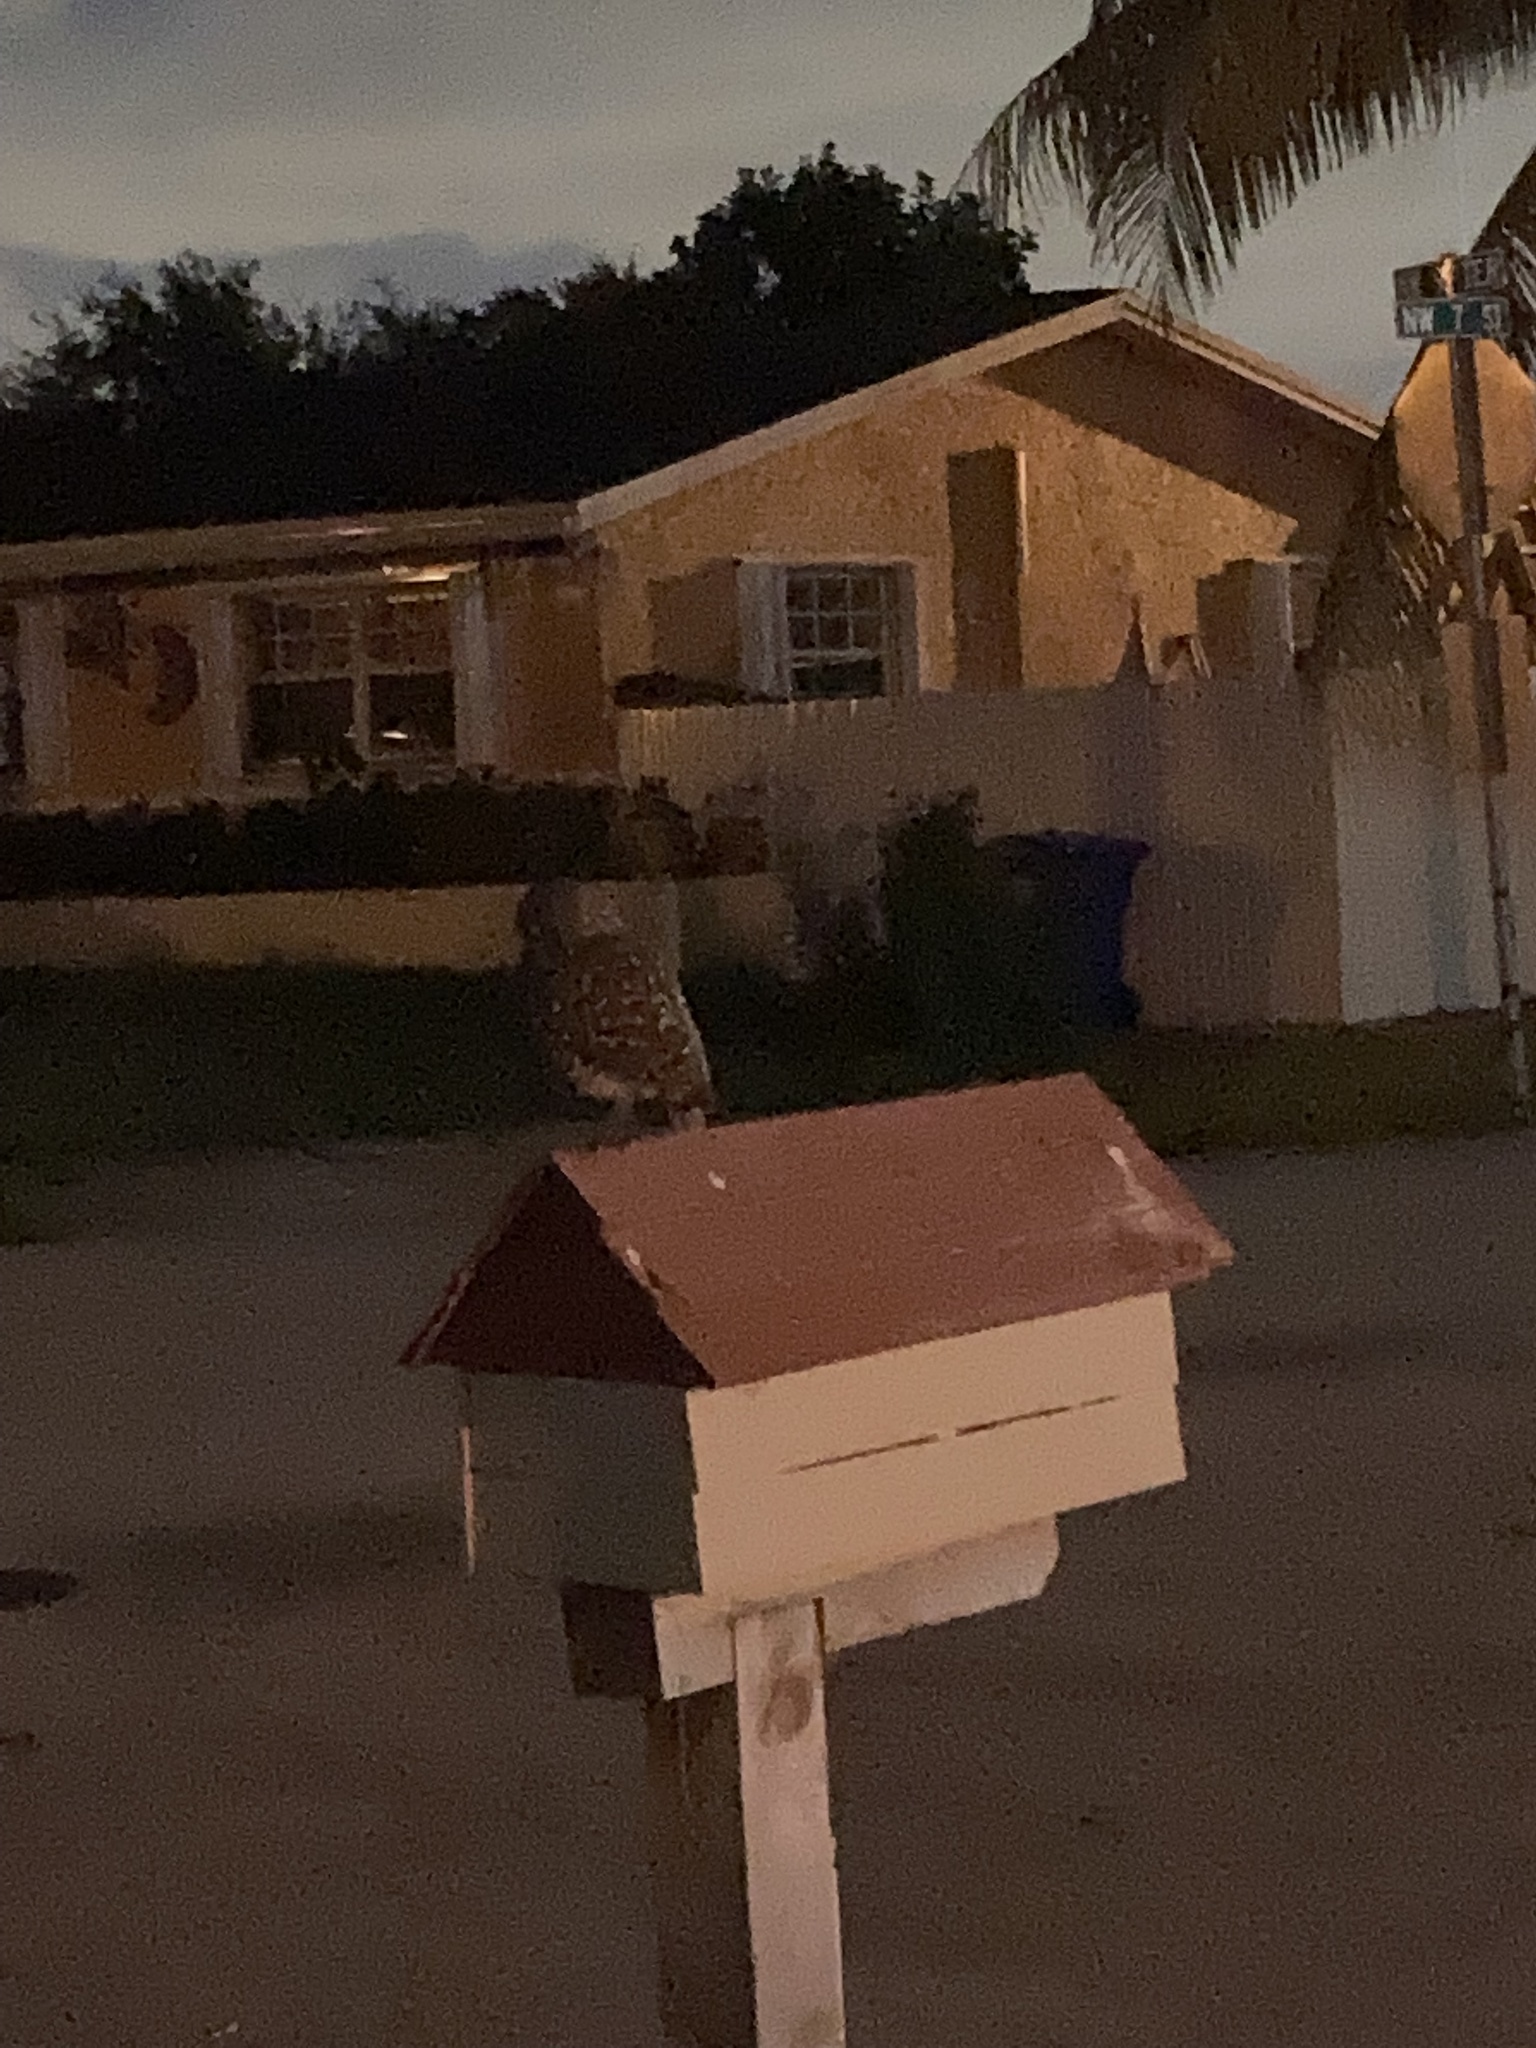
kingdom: Animalia
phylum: Chordata
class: Aves
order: Strigiformes
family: Strigidae
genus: Athene
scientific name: Athene cunicularia
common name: Burrowing owl
